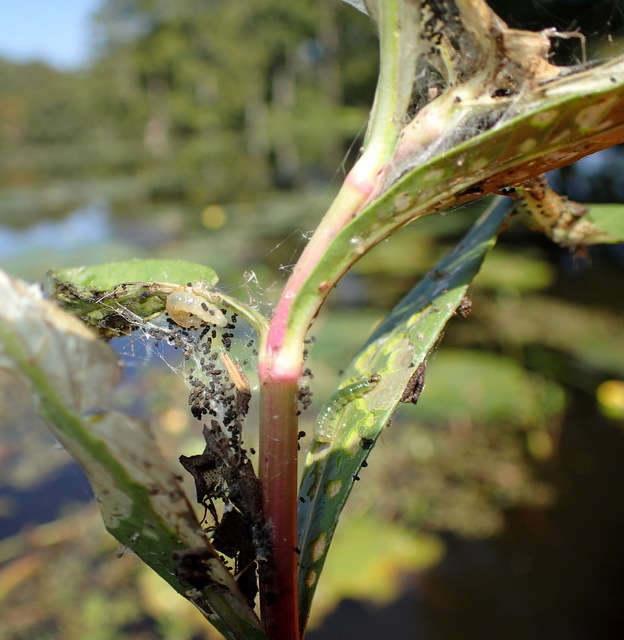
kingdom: Animalia
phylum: Arthropoda
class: Insecta
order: Coleoptera
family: Chrysomelidae
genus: Agasicles
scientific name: Agasicles hygrophila
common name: Alligatorweed flea beetle
